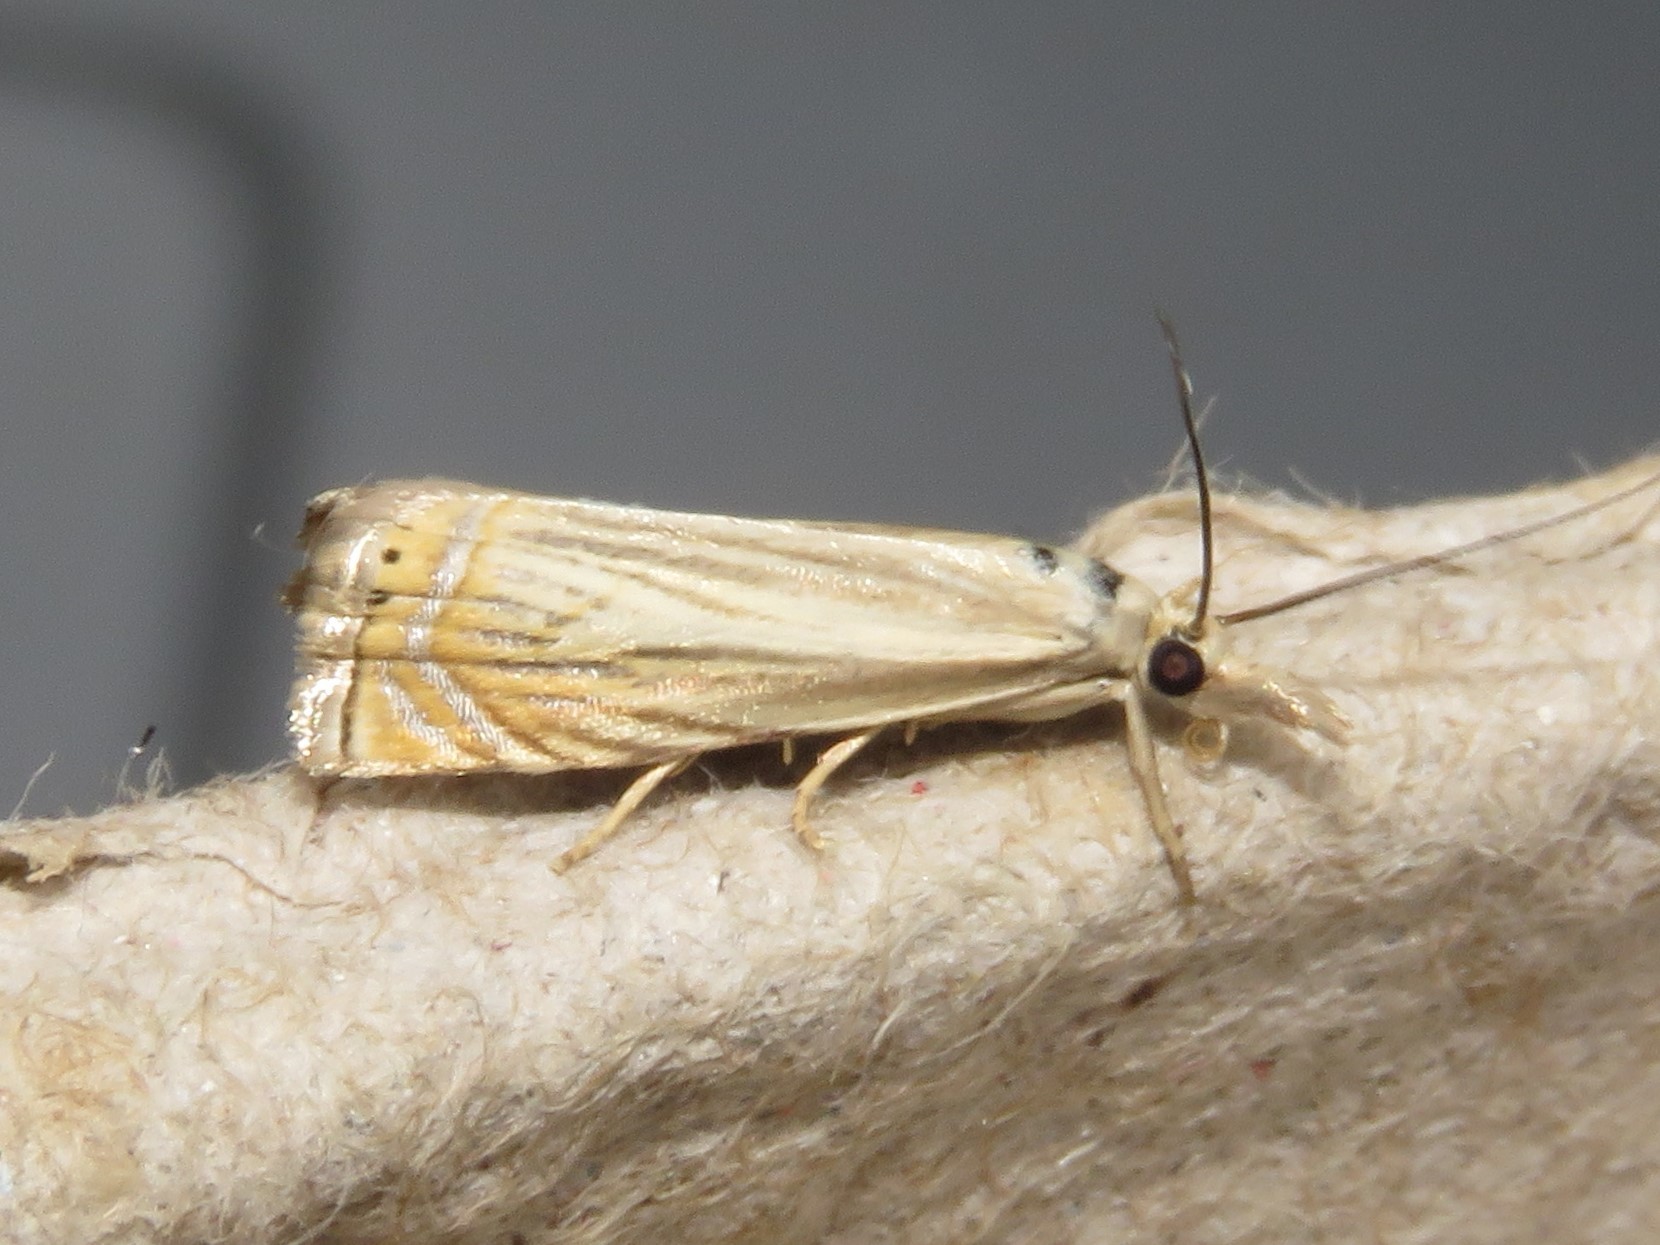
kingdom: Animalia
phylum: Arthropoda
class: Insecta
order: Lepidoptera
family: Crambidae
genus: Chrysoteuchia
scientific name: Chrysoteuchia topiarius
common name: Topiary grass-veneer
